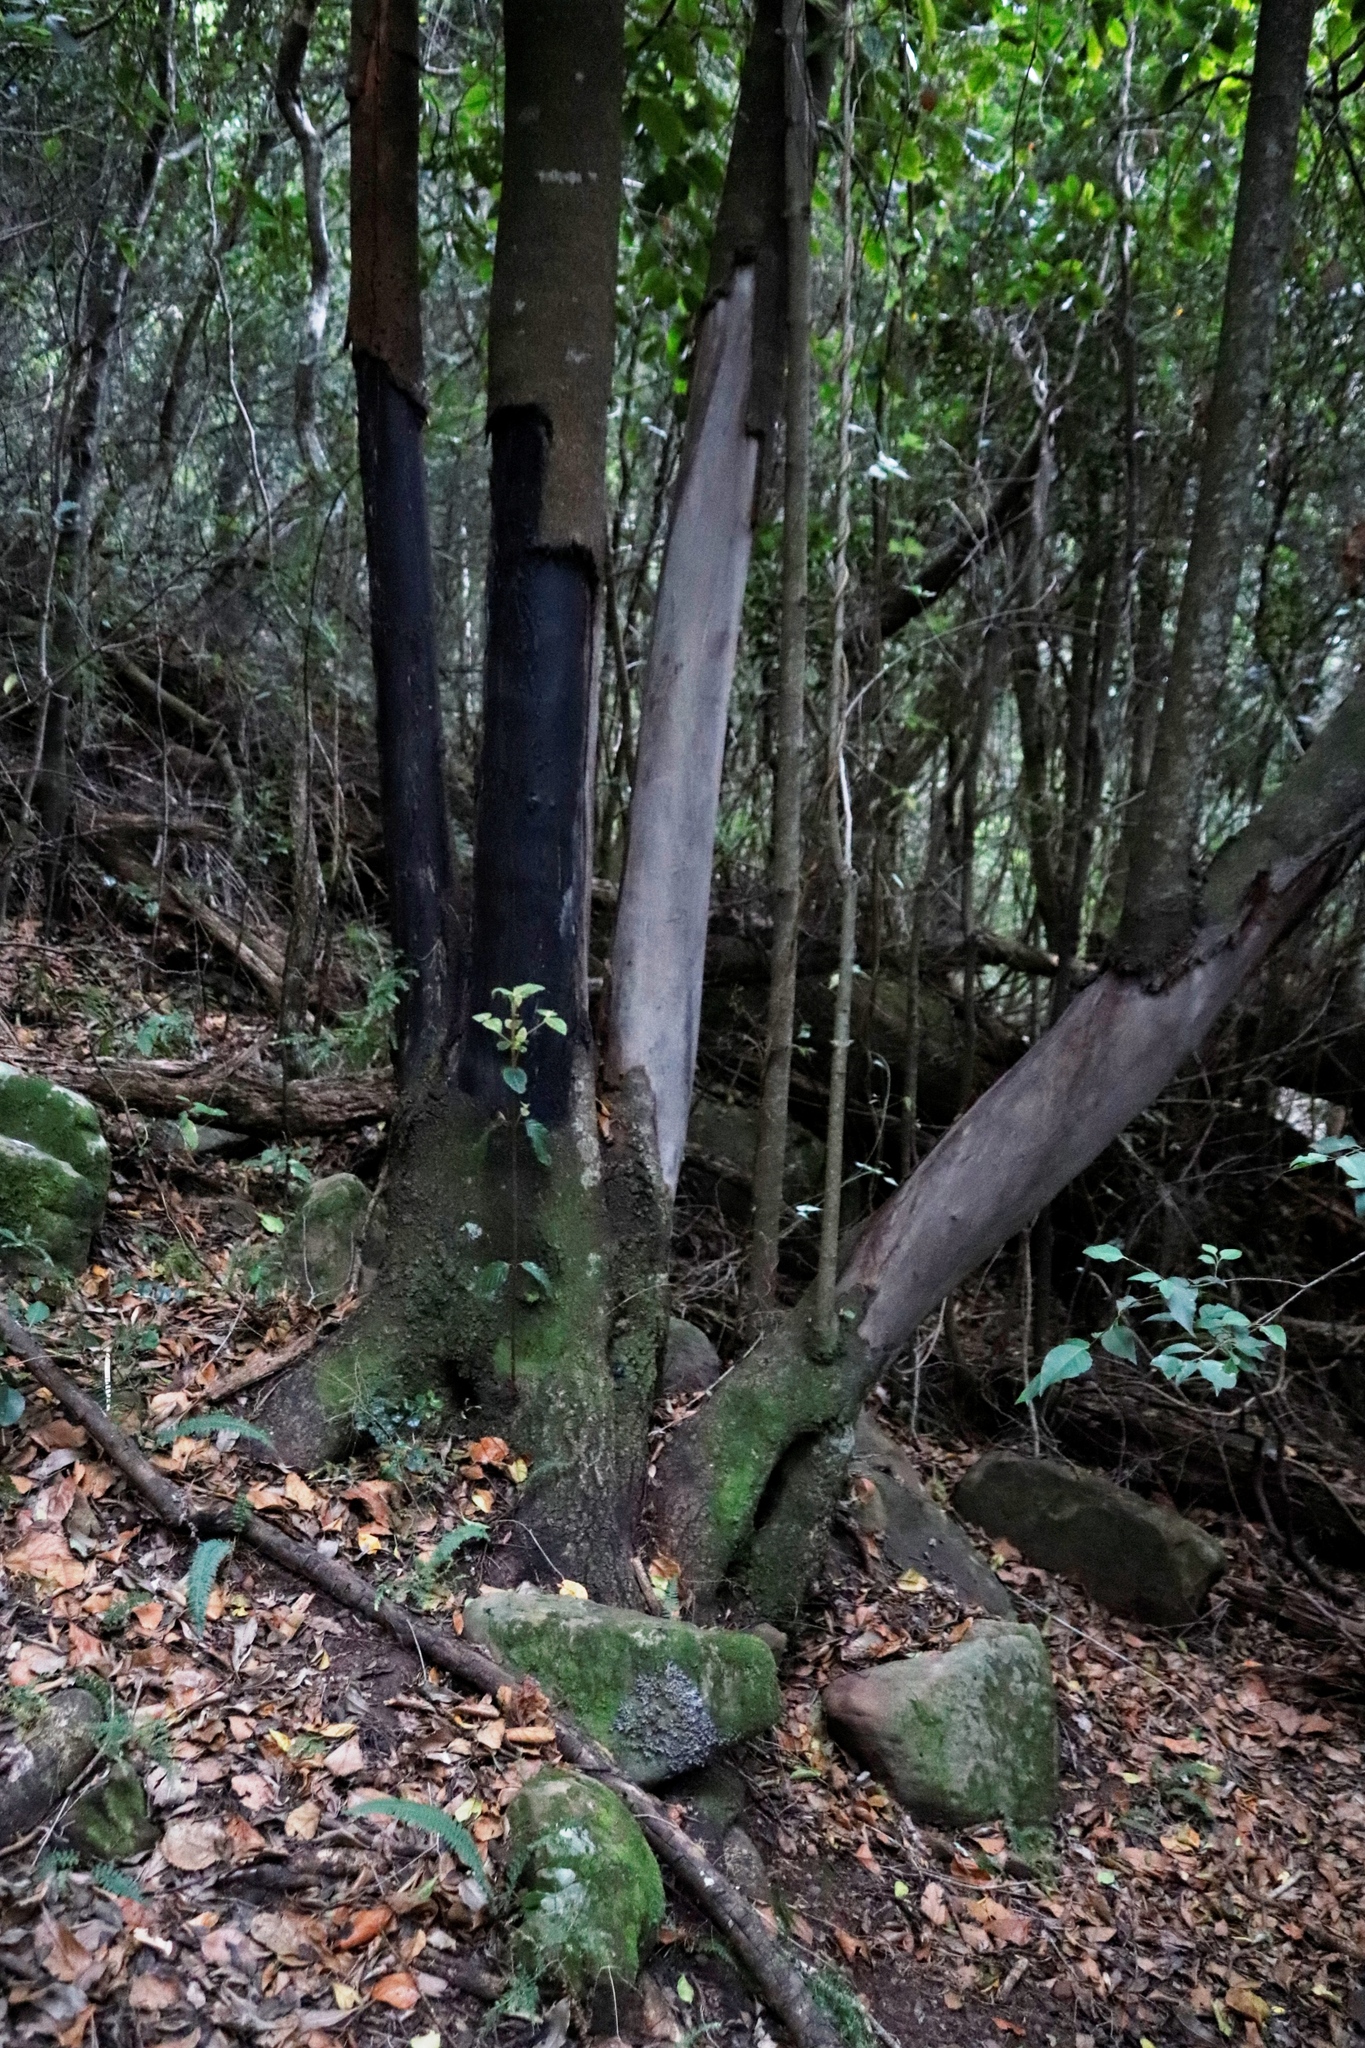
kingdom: Plantae
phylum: Tracheophyta
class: Magnoliopsida
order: Cornales
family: Curtisiaceae
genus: Curtisia
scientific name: Curtisia dentata
